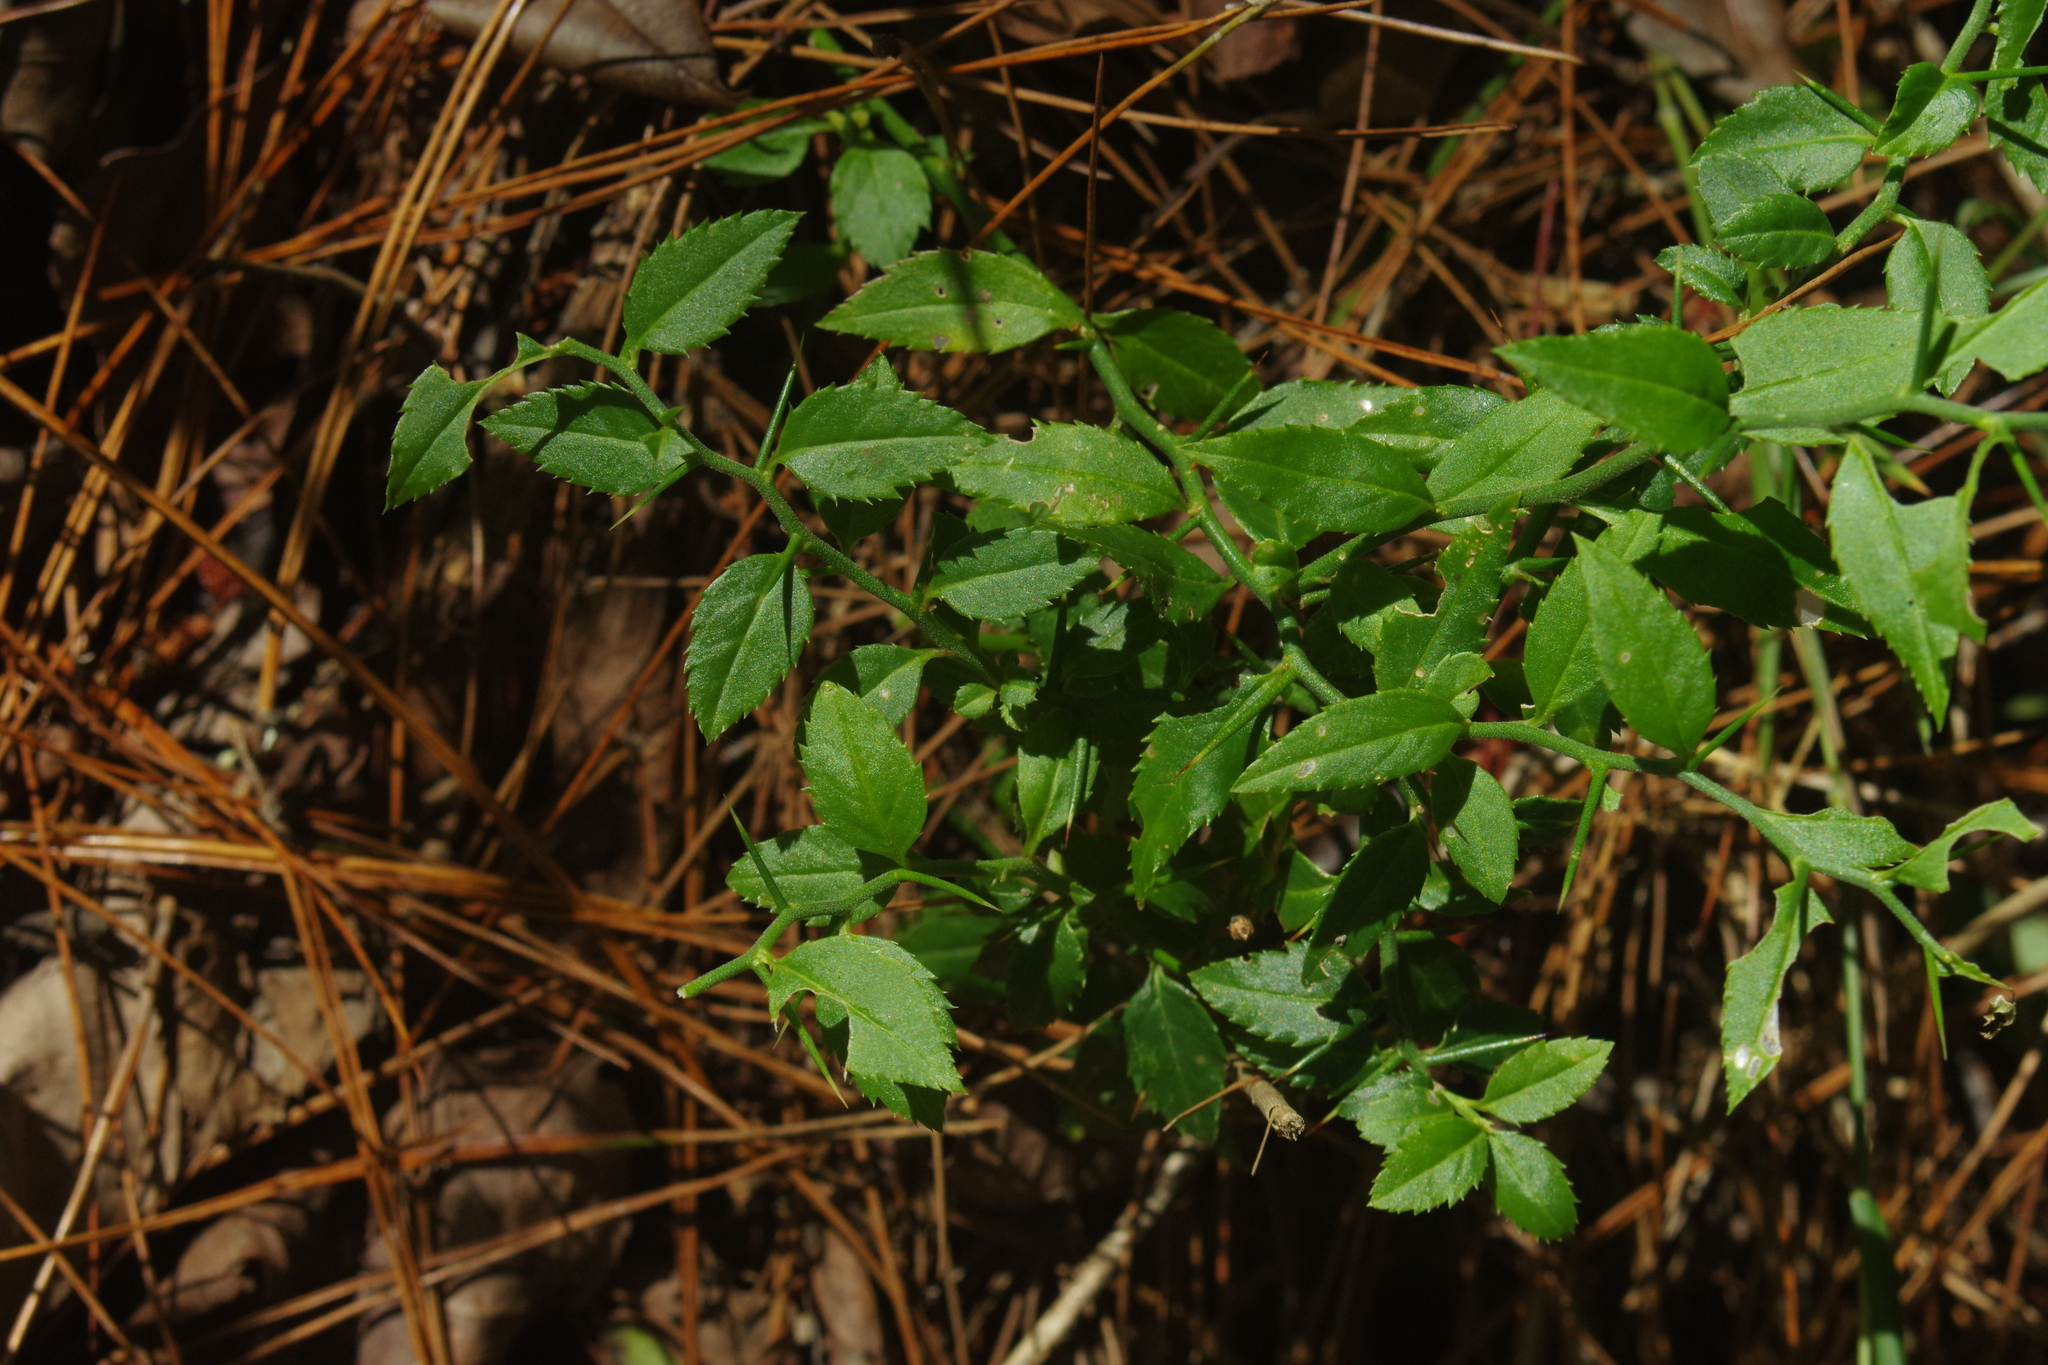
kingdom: Plantae
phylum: Tracheophyta
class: Magnoliopsida
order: Rosales
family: Rosaceae
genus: Prinsepia
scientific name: Prinsepia scandens
